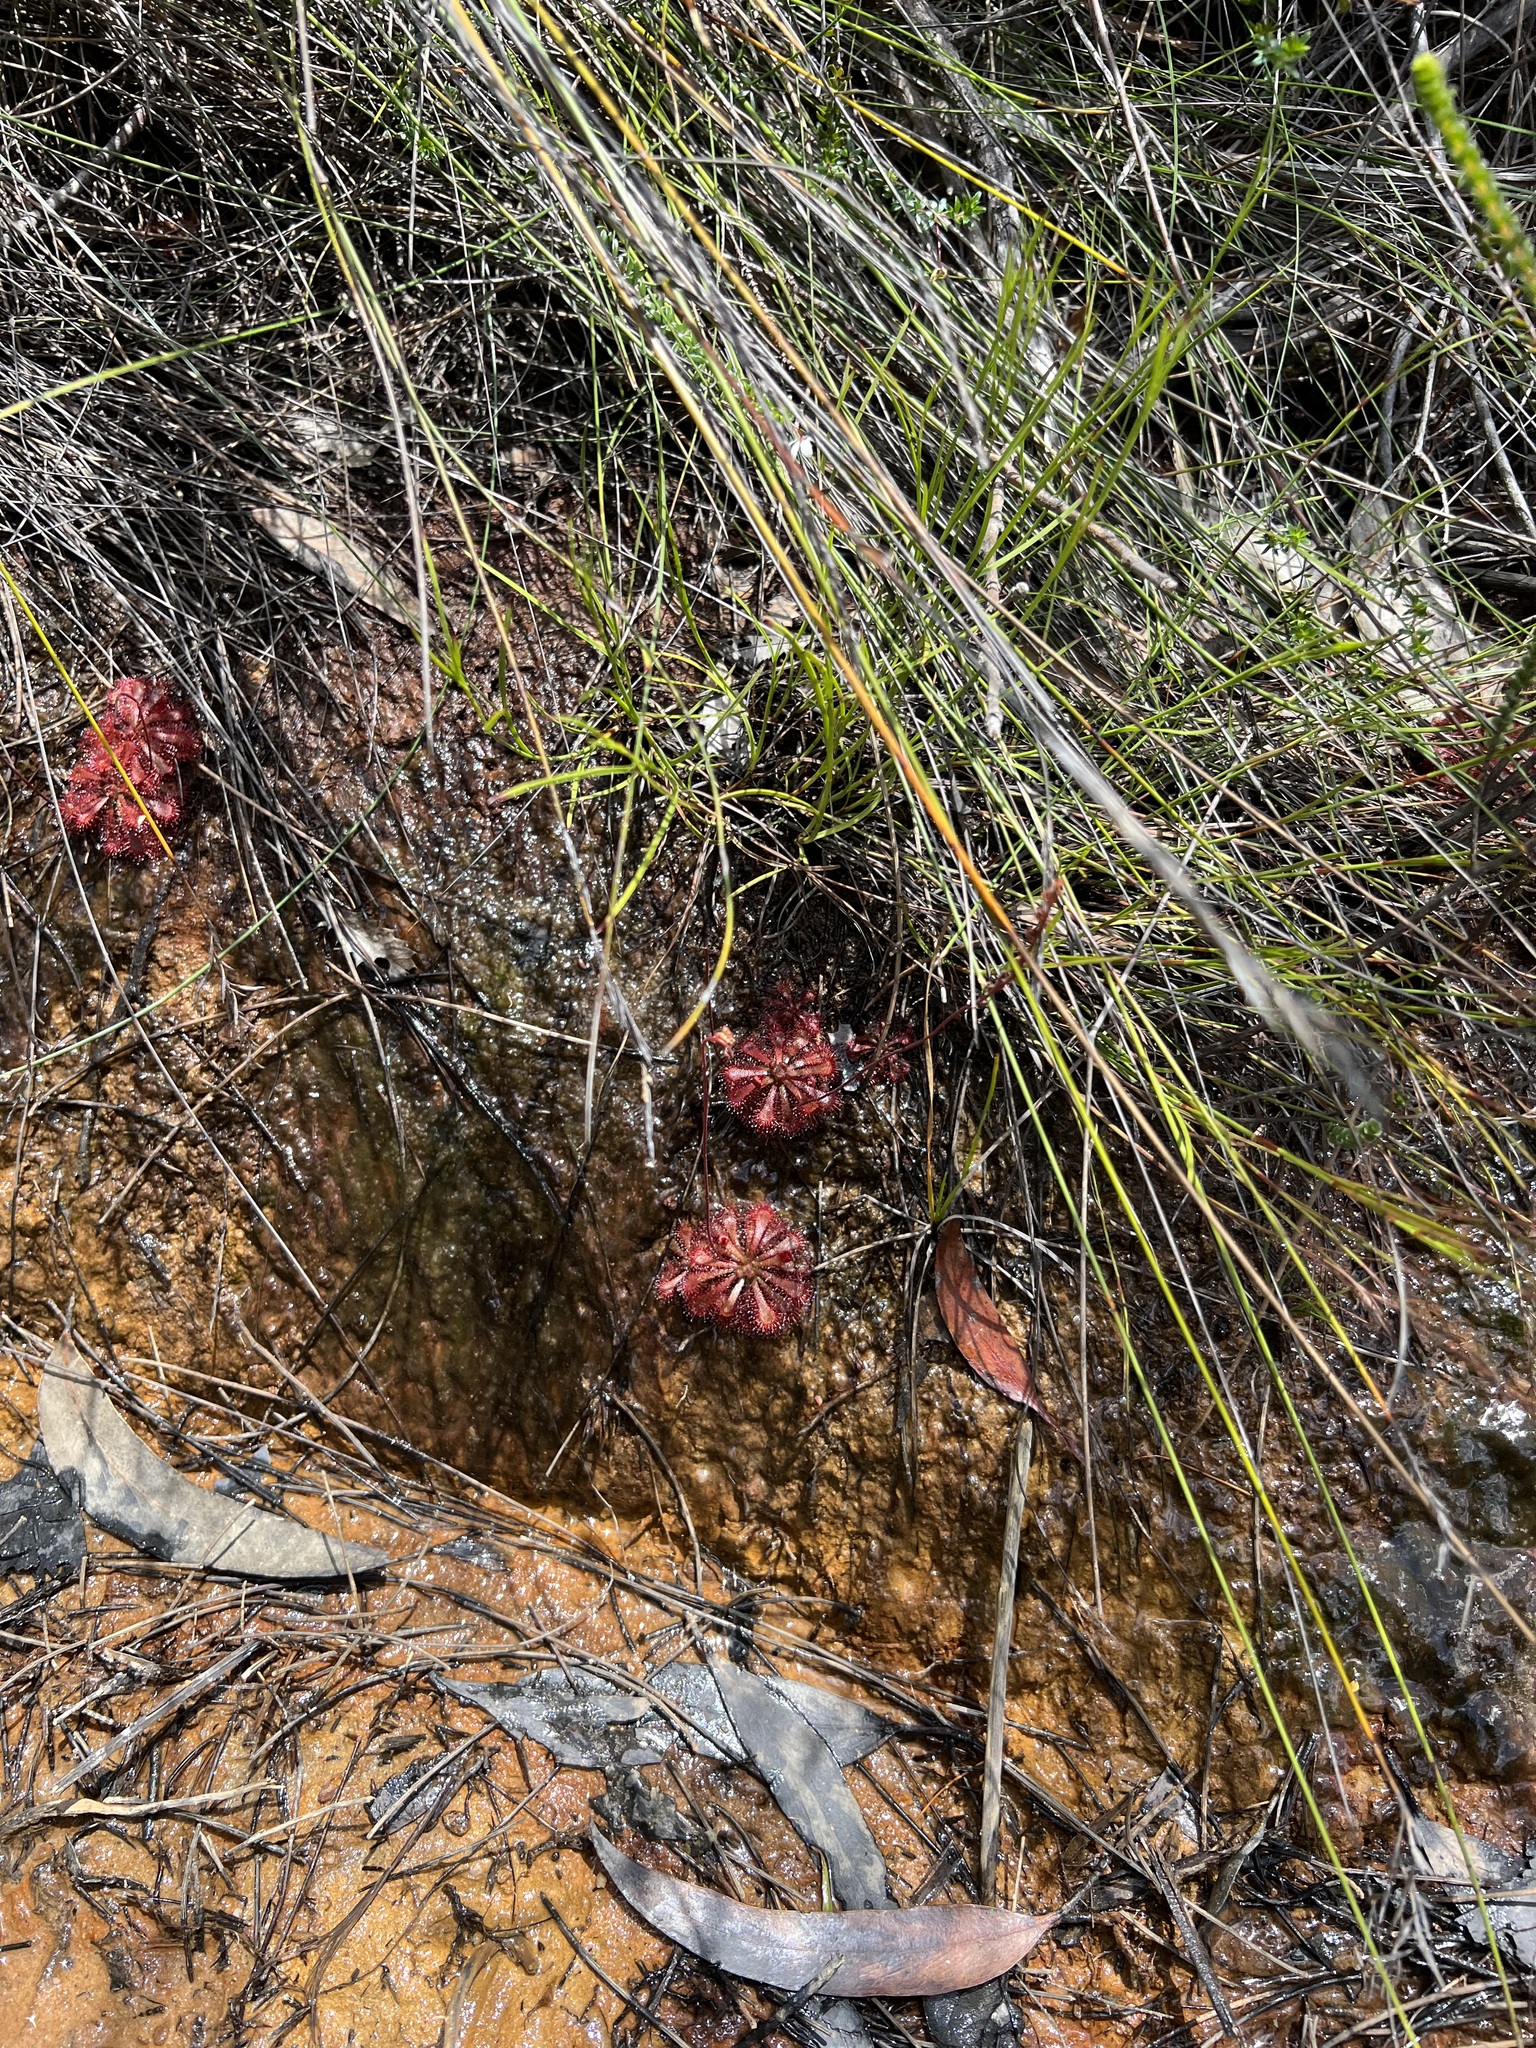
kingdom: Plantae
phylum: Tracheophyta
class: Magnoliopsida
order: Caryophyllales
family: Droseraceae
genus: Drosera
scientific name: Drosera spatulata
